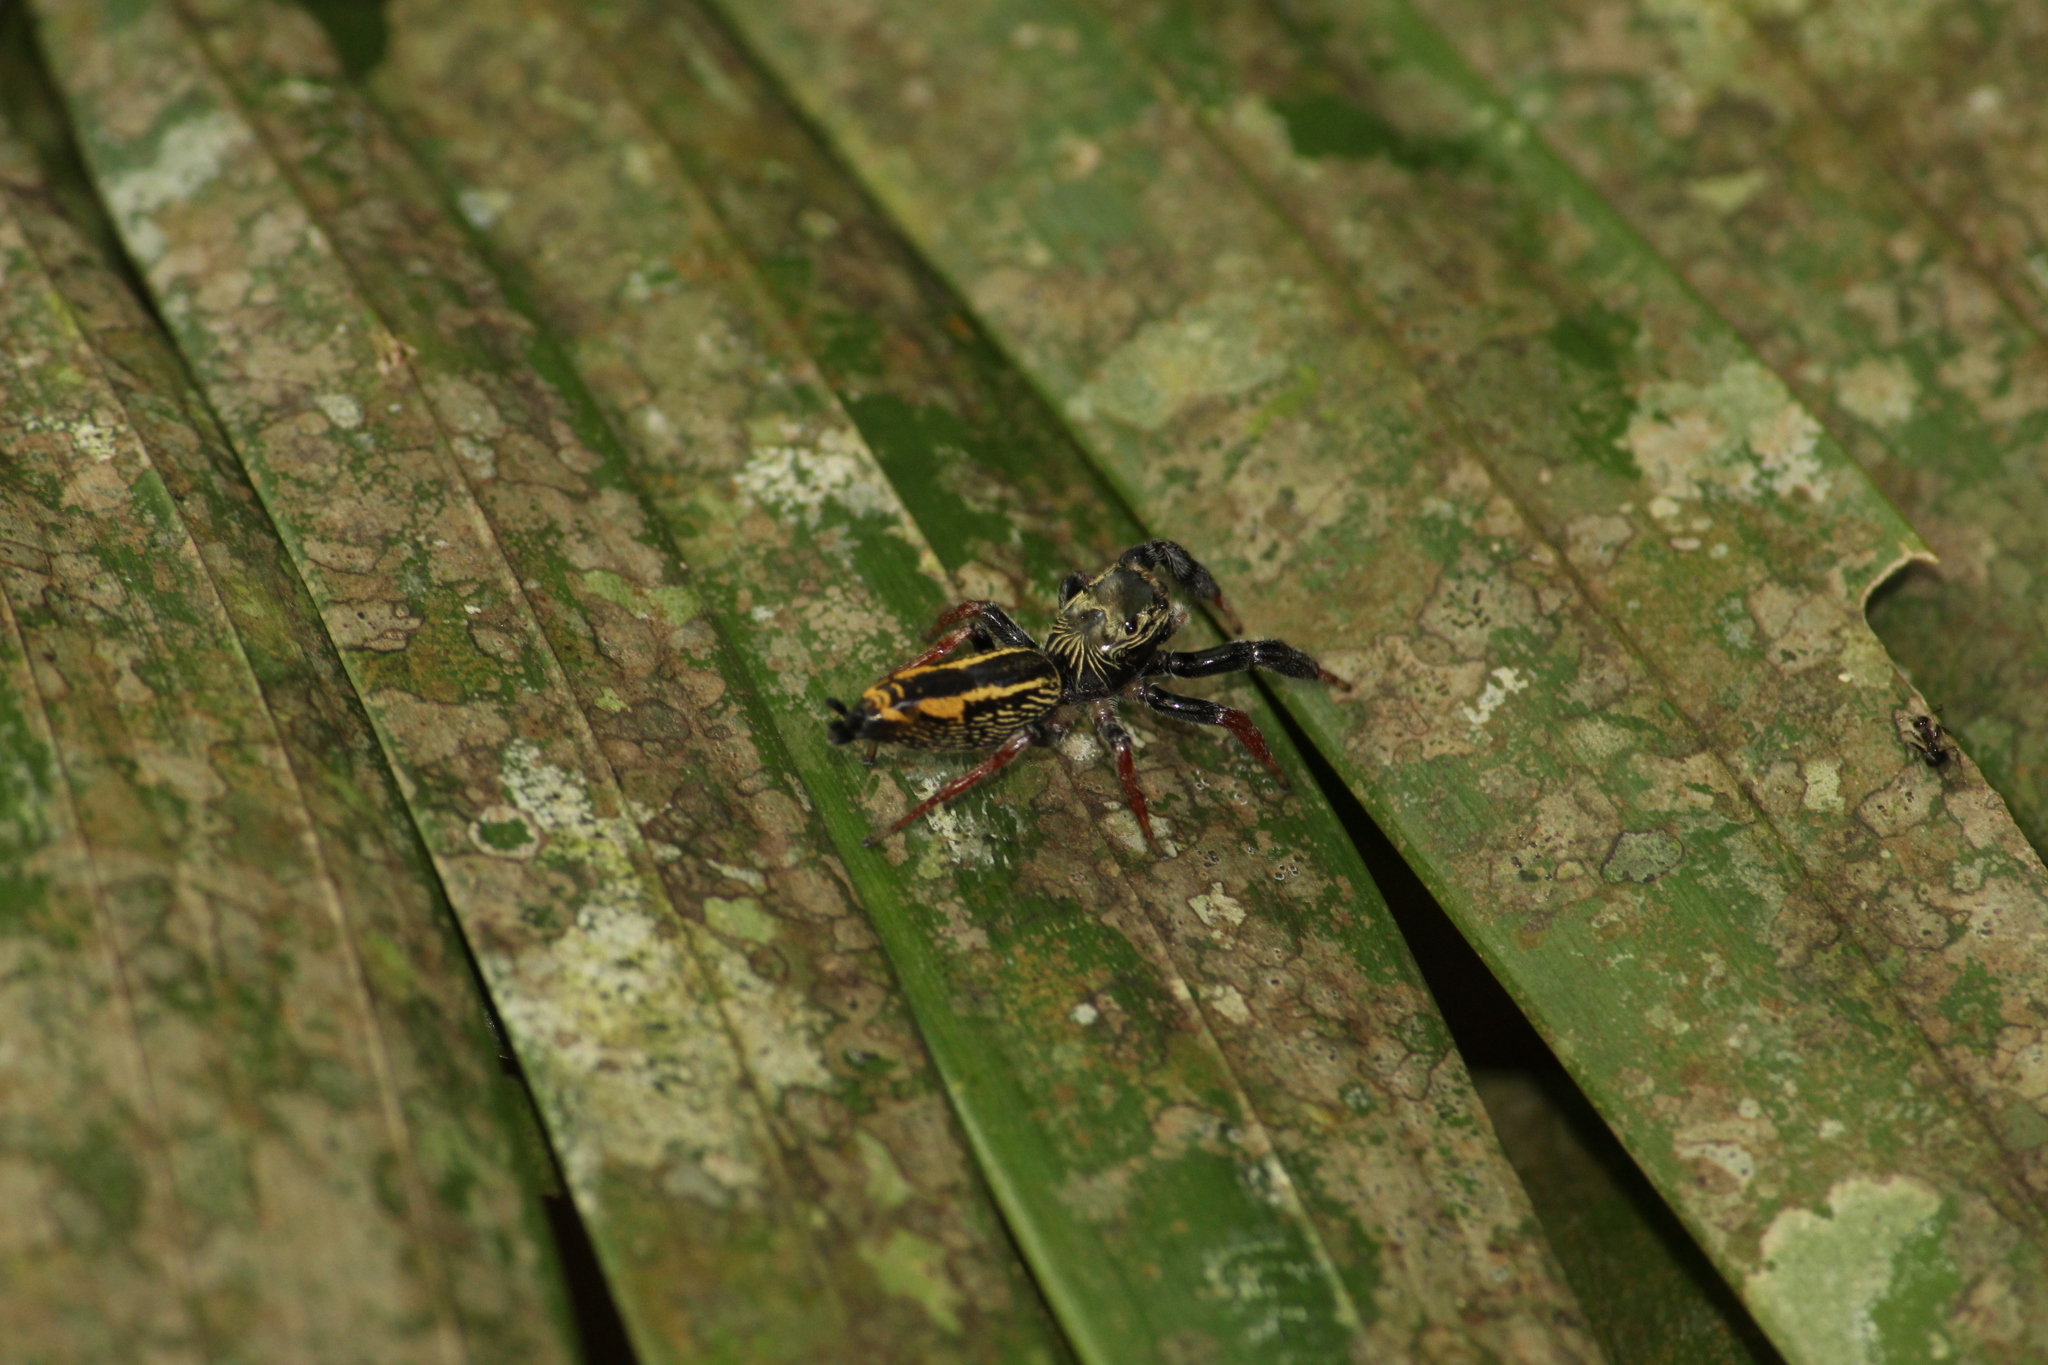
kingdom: Animalia
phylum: Arthropoda
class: Arachnida
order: Araneae
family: Salticidae
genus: Druzia
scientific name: Druzia flavostriata
